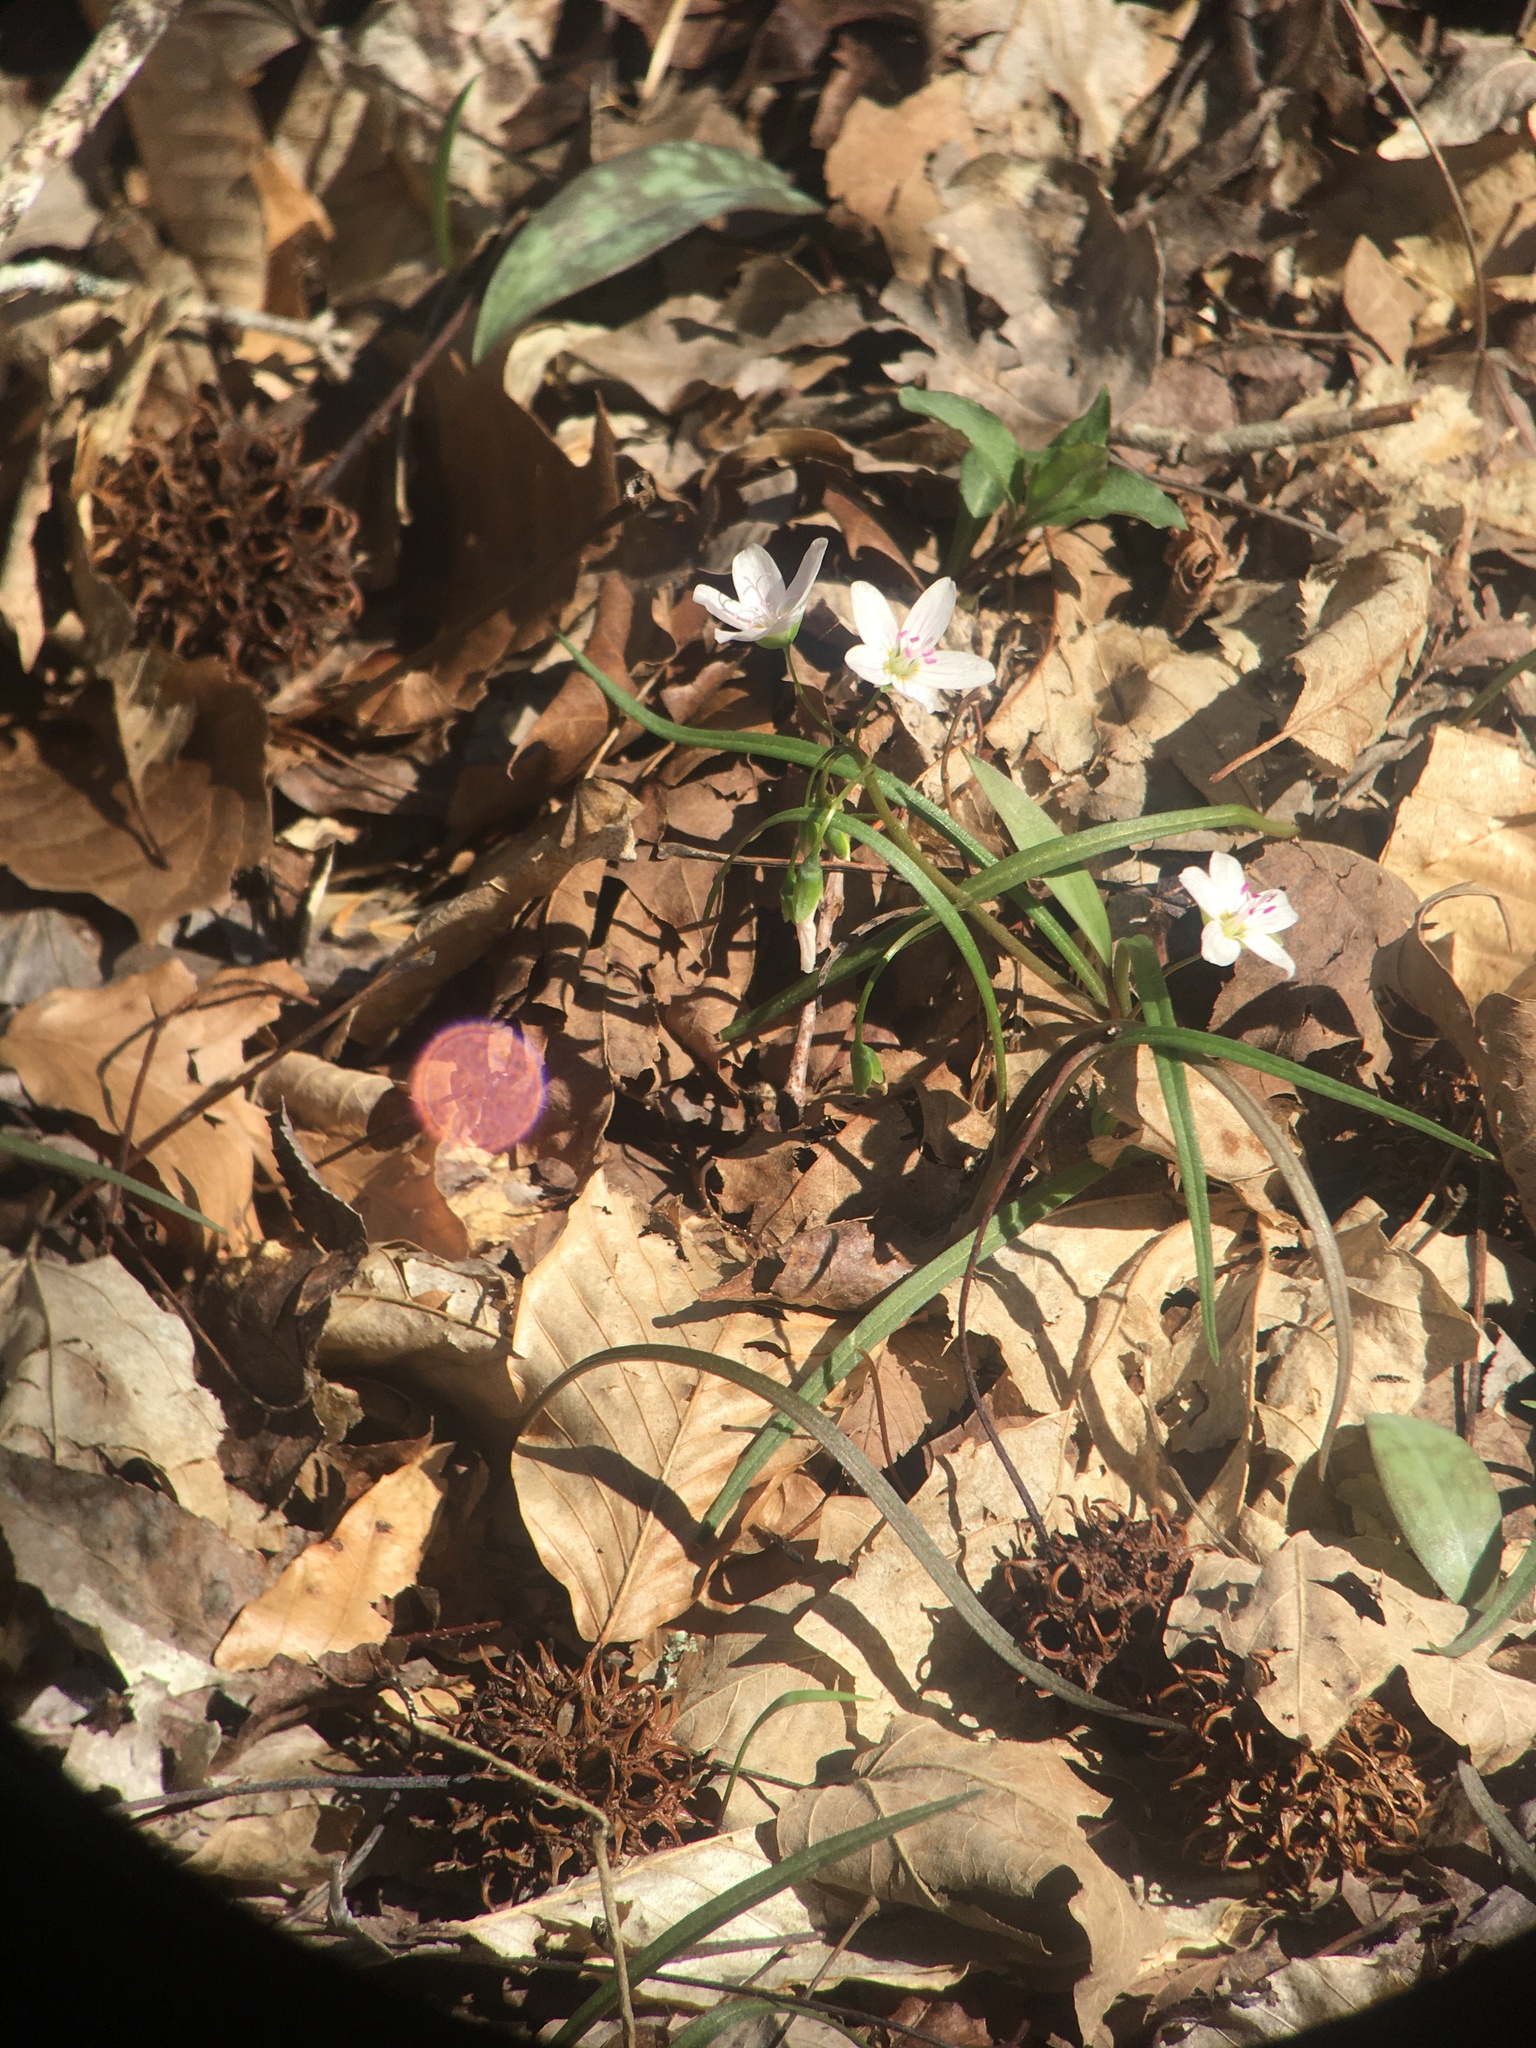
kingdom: Plantae
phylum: Tracheophyta
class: Magnoliopsida
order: Caryophyllales
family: Montiaceae
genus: Claytonia
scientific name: Claytonia virginica
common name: Virginia springbeauty
